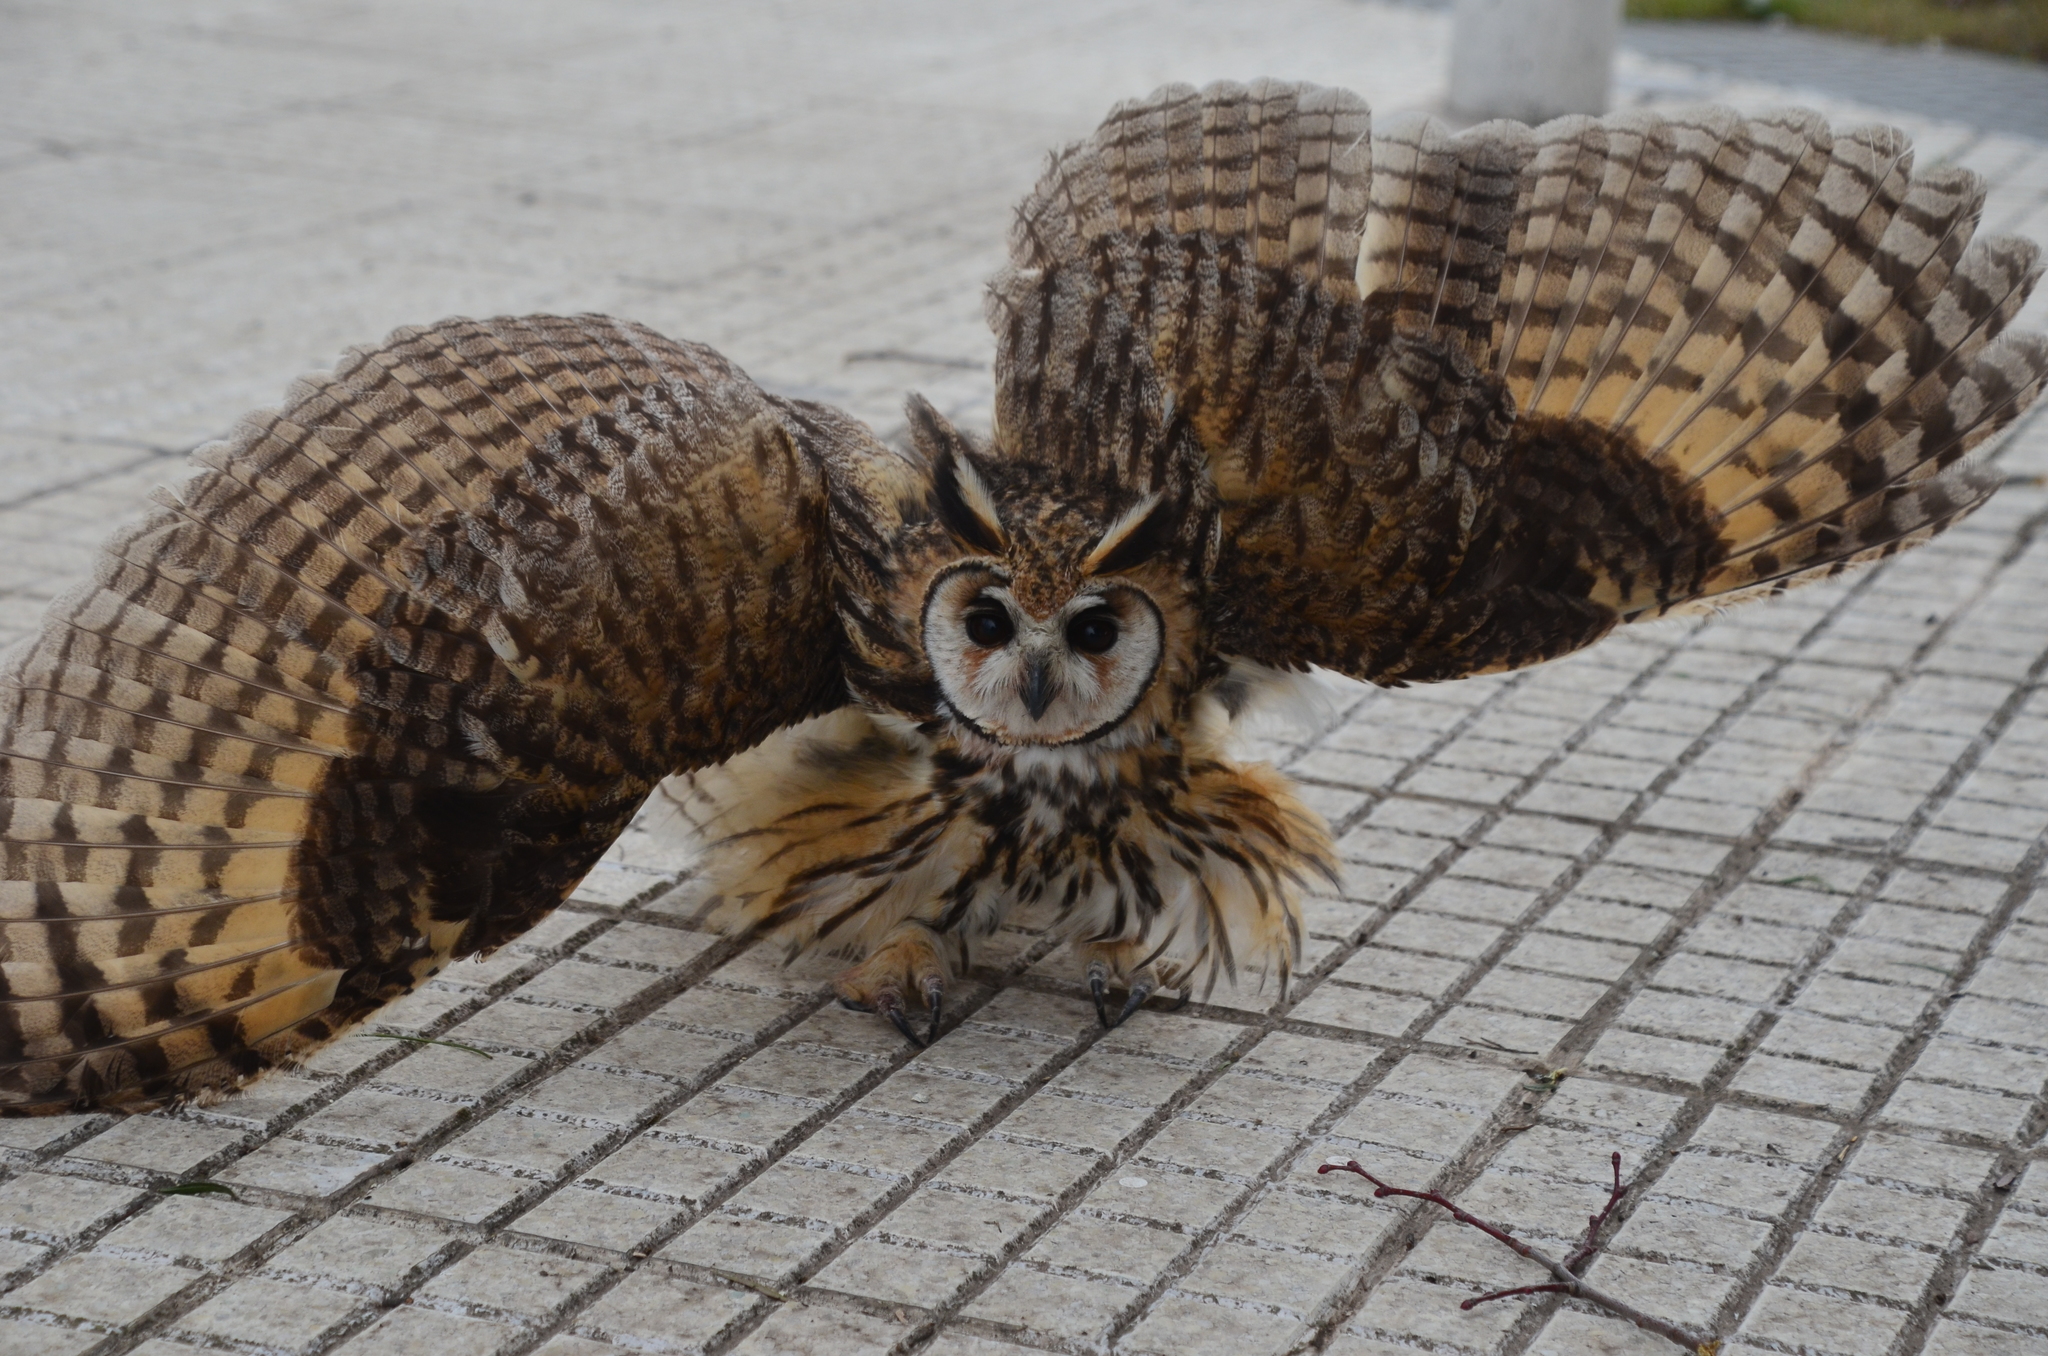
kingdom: Animalia
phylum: Chordata
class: Aves
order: Strigiformes
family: Strigidae
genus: Pseudoscops
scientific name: Pseudoscops clamator
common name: Striped owl
